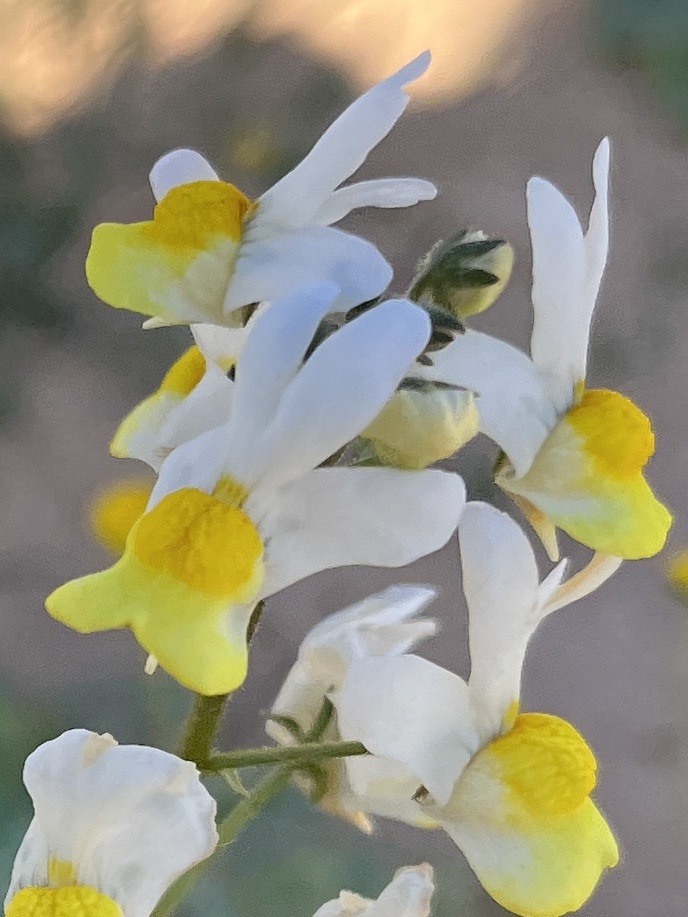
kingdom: Plantae
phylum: Tracheophyta
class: Magnoliopsida
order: Lamiales
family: Scrophulariaceae
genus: Nemesia
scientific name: Nemesia anisocarpa
